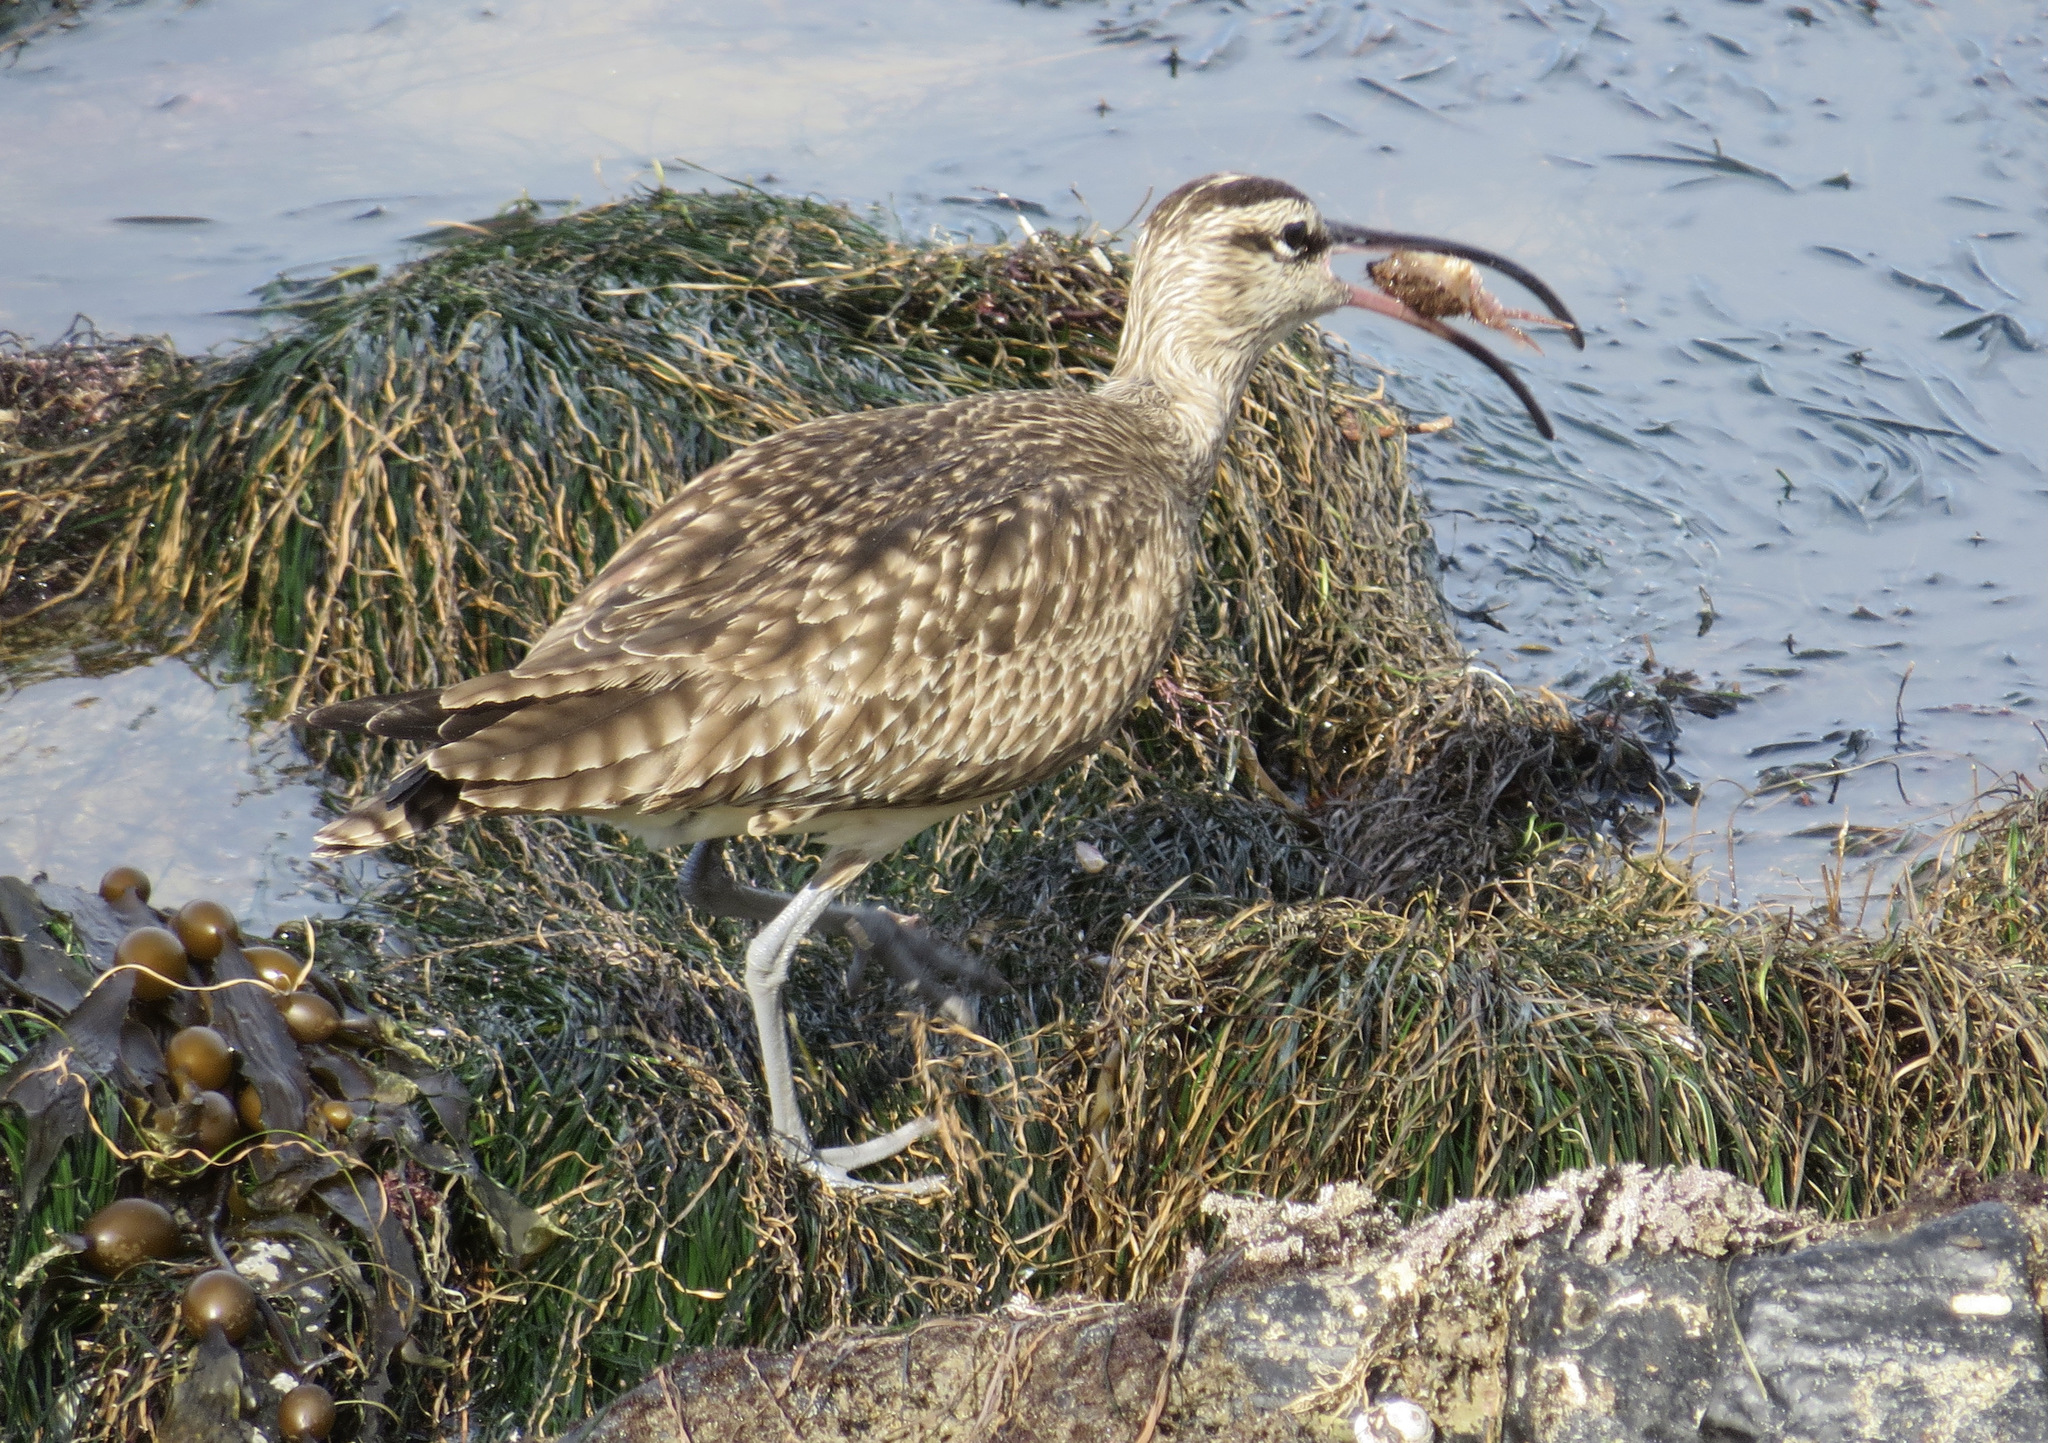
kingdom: Animalia
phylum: Arthropoda
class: Malacostraca
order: Decapoda
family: Cancridae
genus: Romaleon
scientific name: Romaleon antennarium
